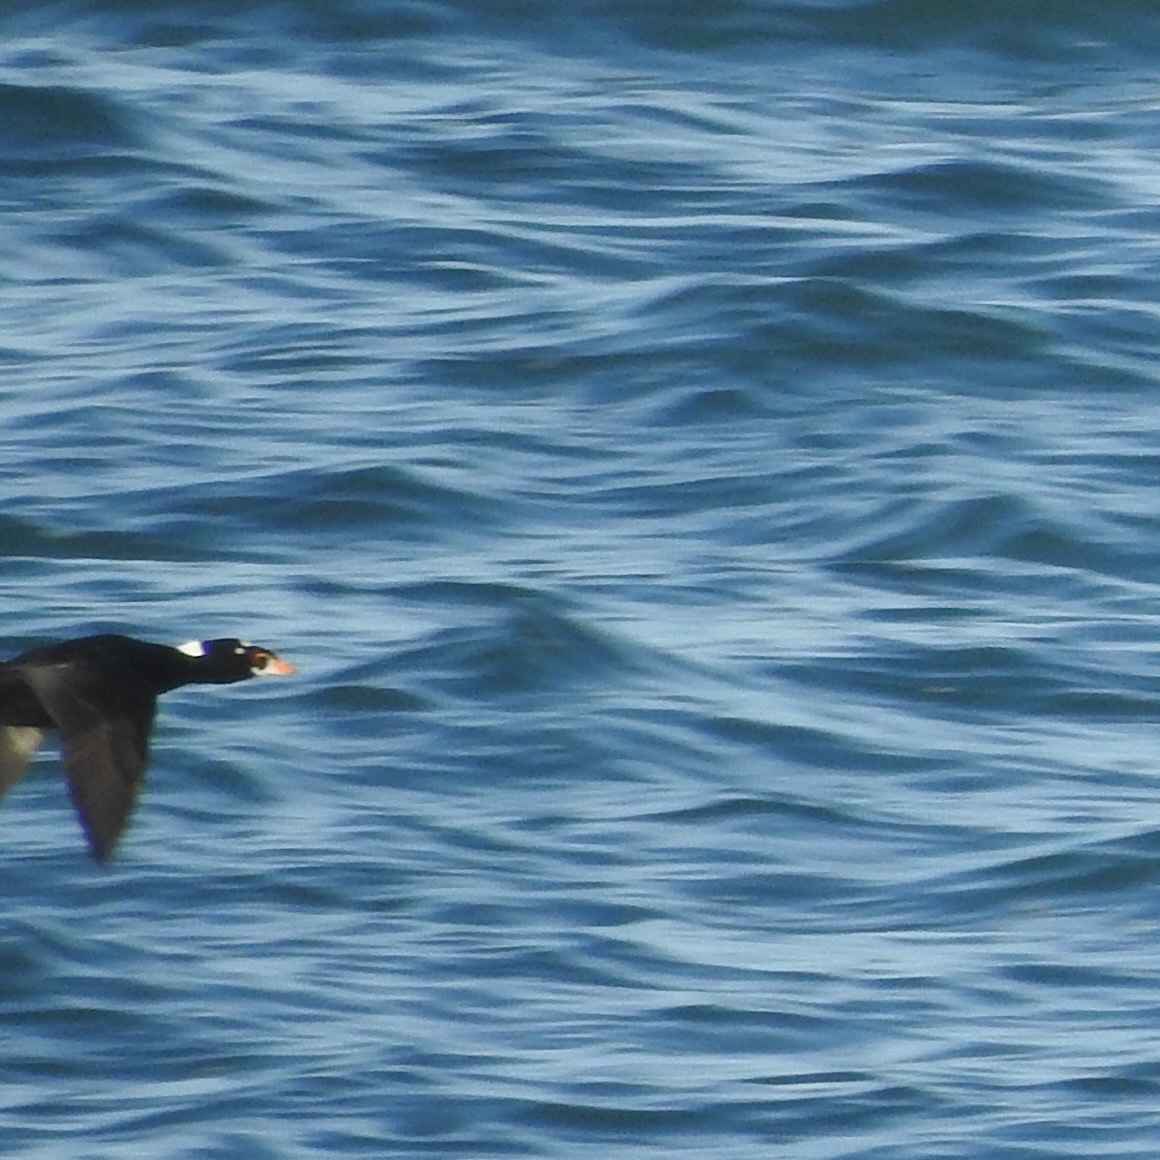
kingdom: Animalia
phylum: Chordata
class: Aves
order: Anseriformes
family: Anatidae
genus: Melanitta
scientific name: Melanitta perspicillata
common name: Surf scoter
